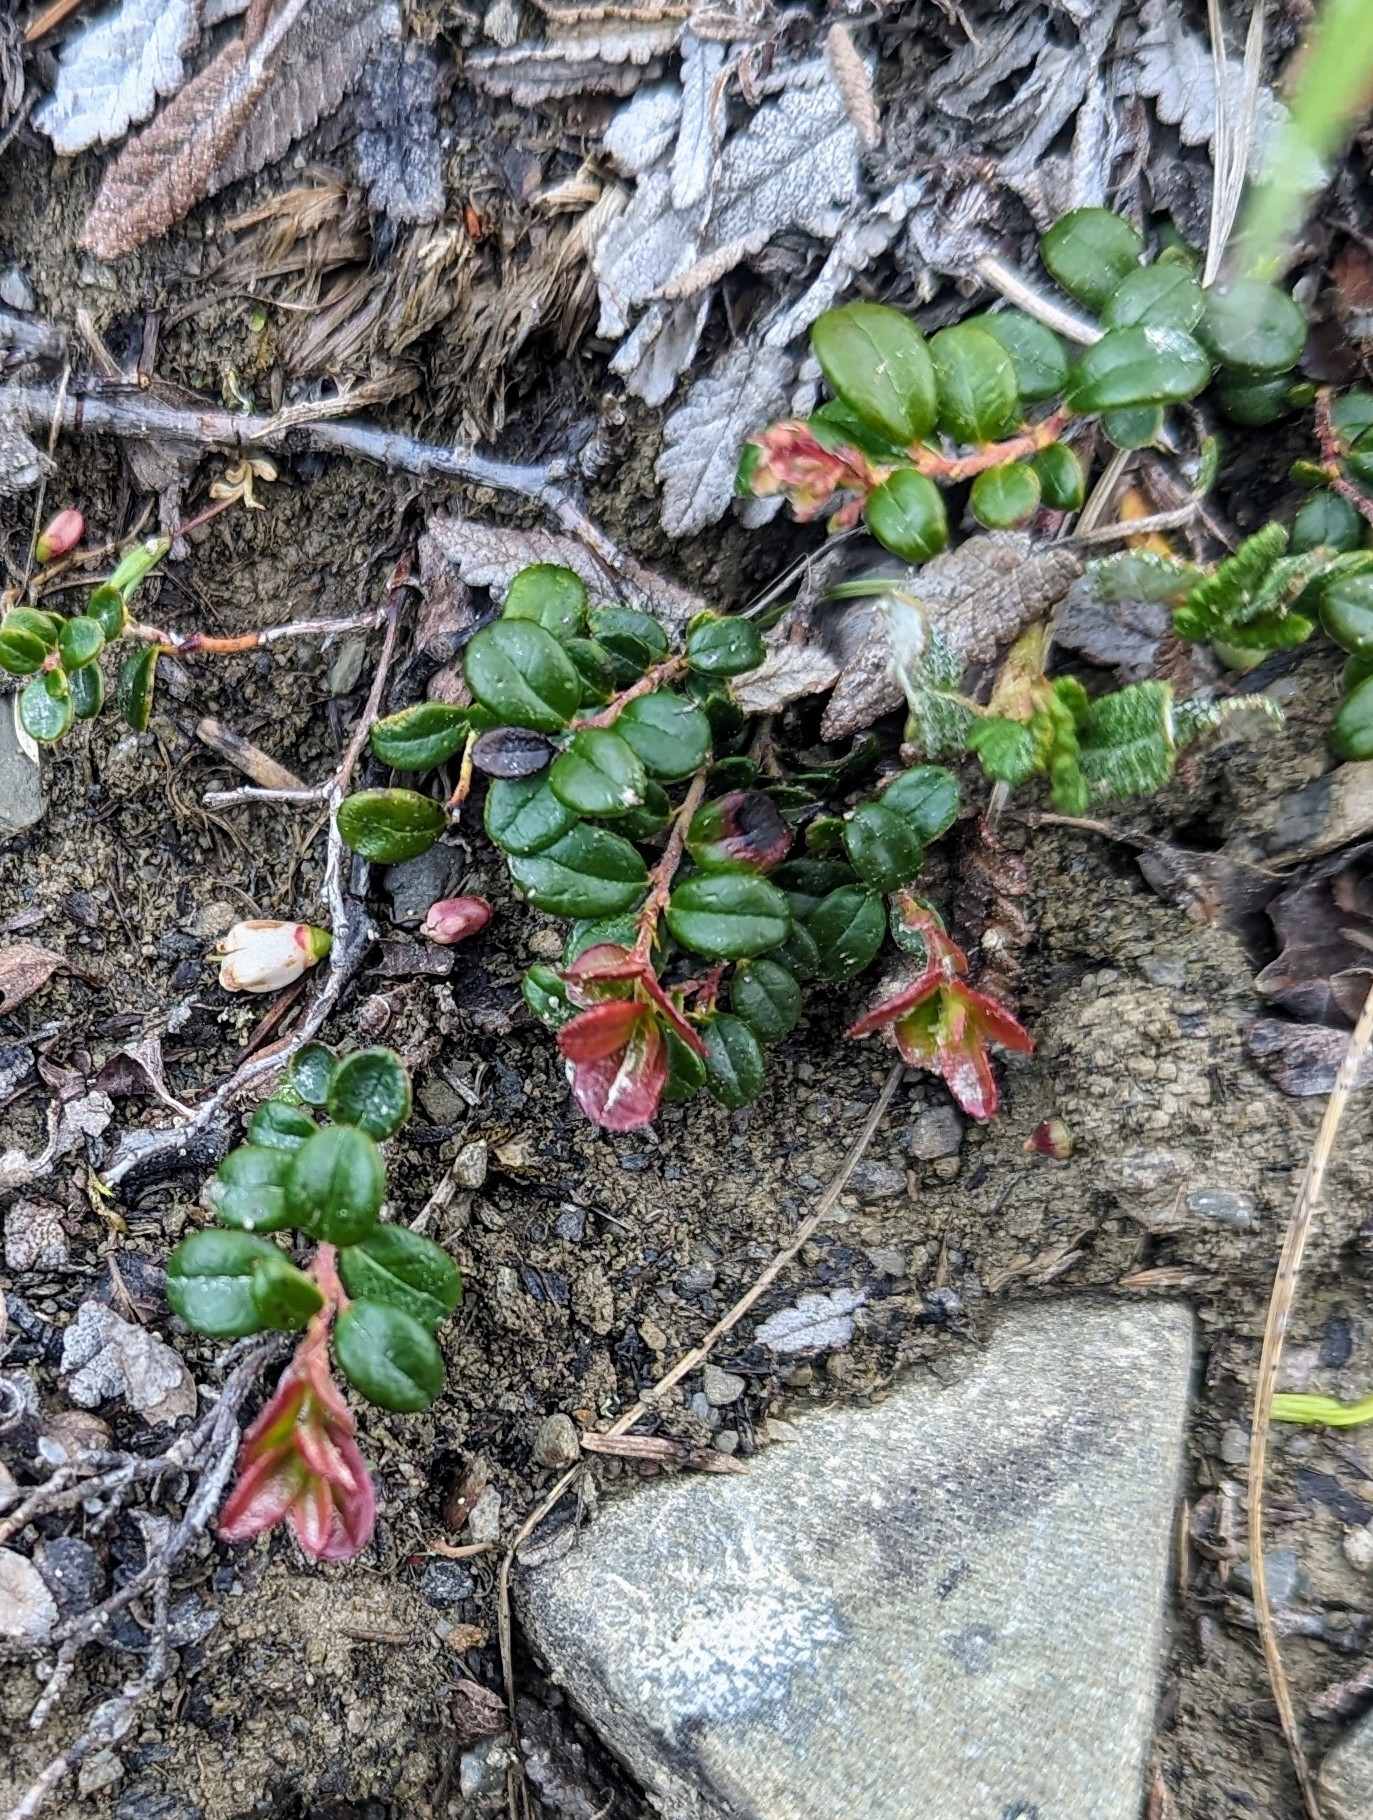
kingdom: Plantae
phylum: Tracheophyta
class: Magnoliopsida
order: Ericales
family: Ericaceae
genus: Vaccinium
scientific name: Vaccinium vitis-idaea
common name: Cowberry
